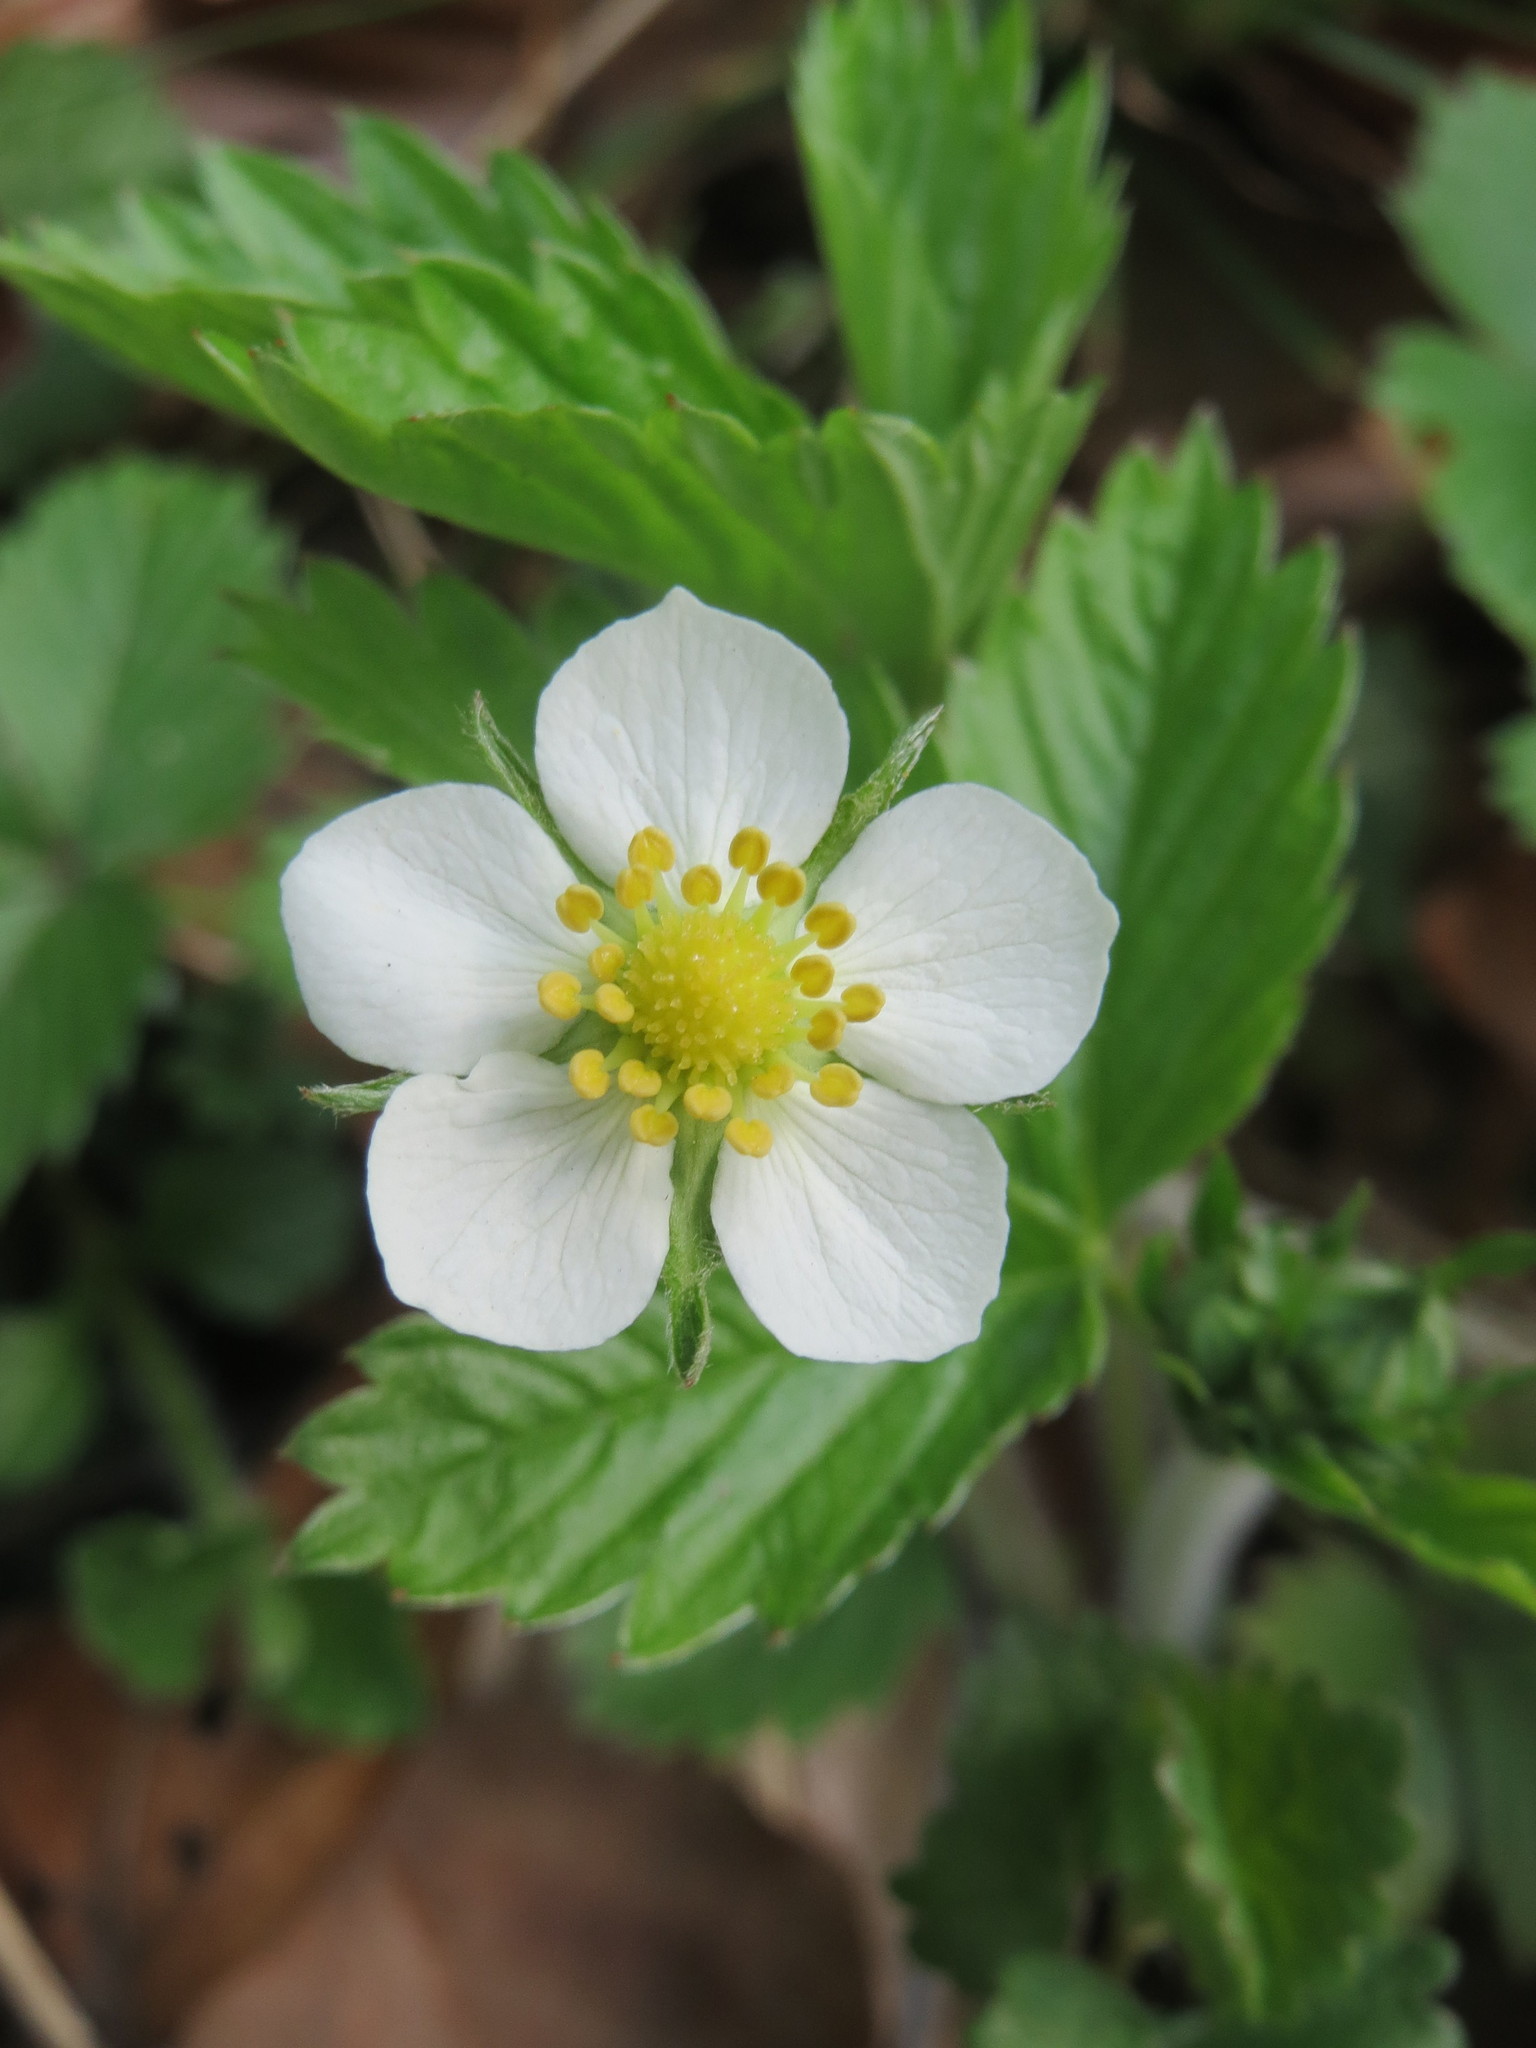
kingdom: Plantae
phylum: Tracheophyta
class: Magnoliopsida
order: Rosales
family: Rosaceae
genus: Fragaria
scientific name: Fragaria vesca
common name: Wild strawberry
